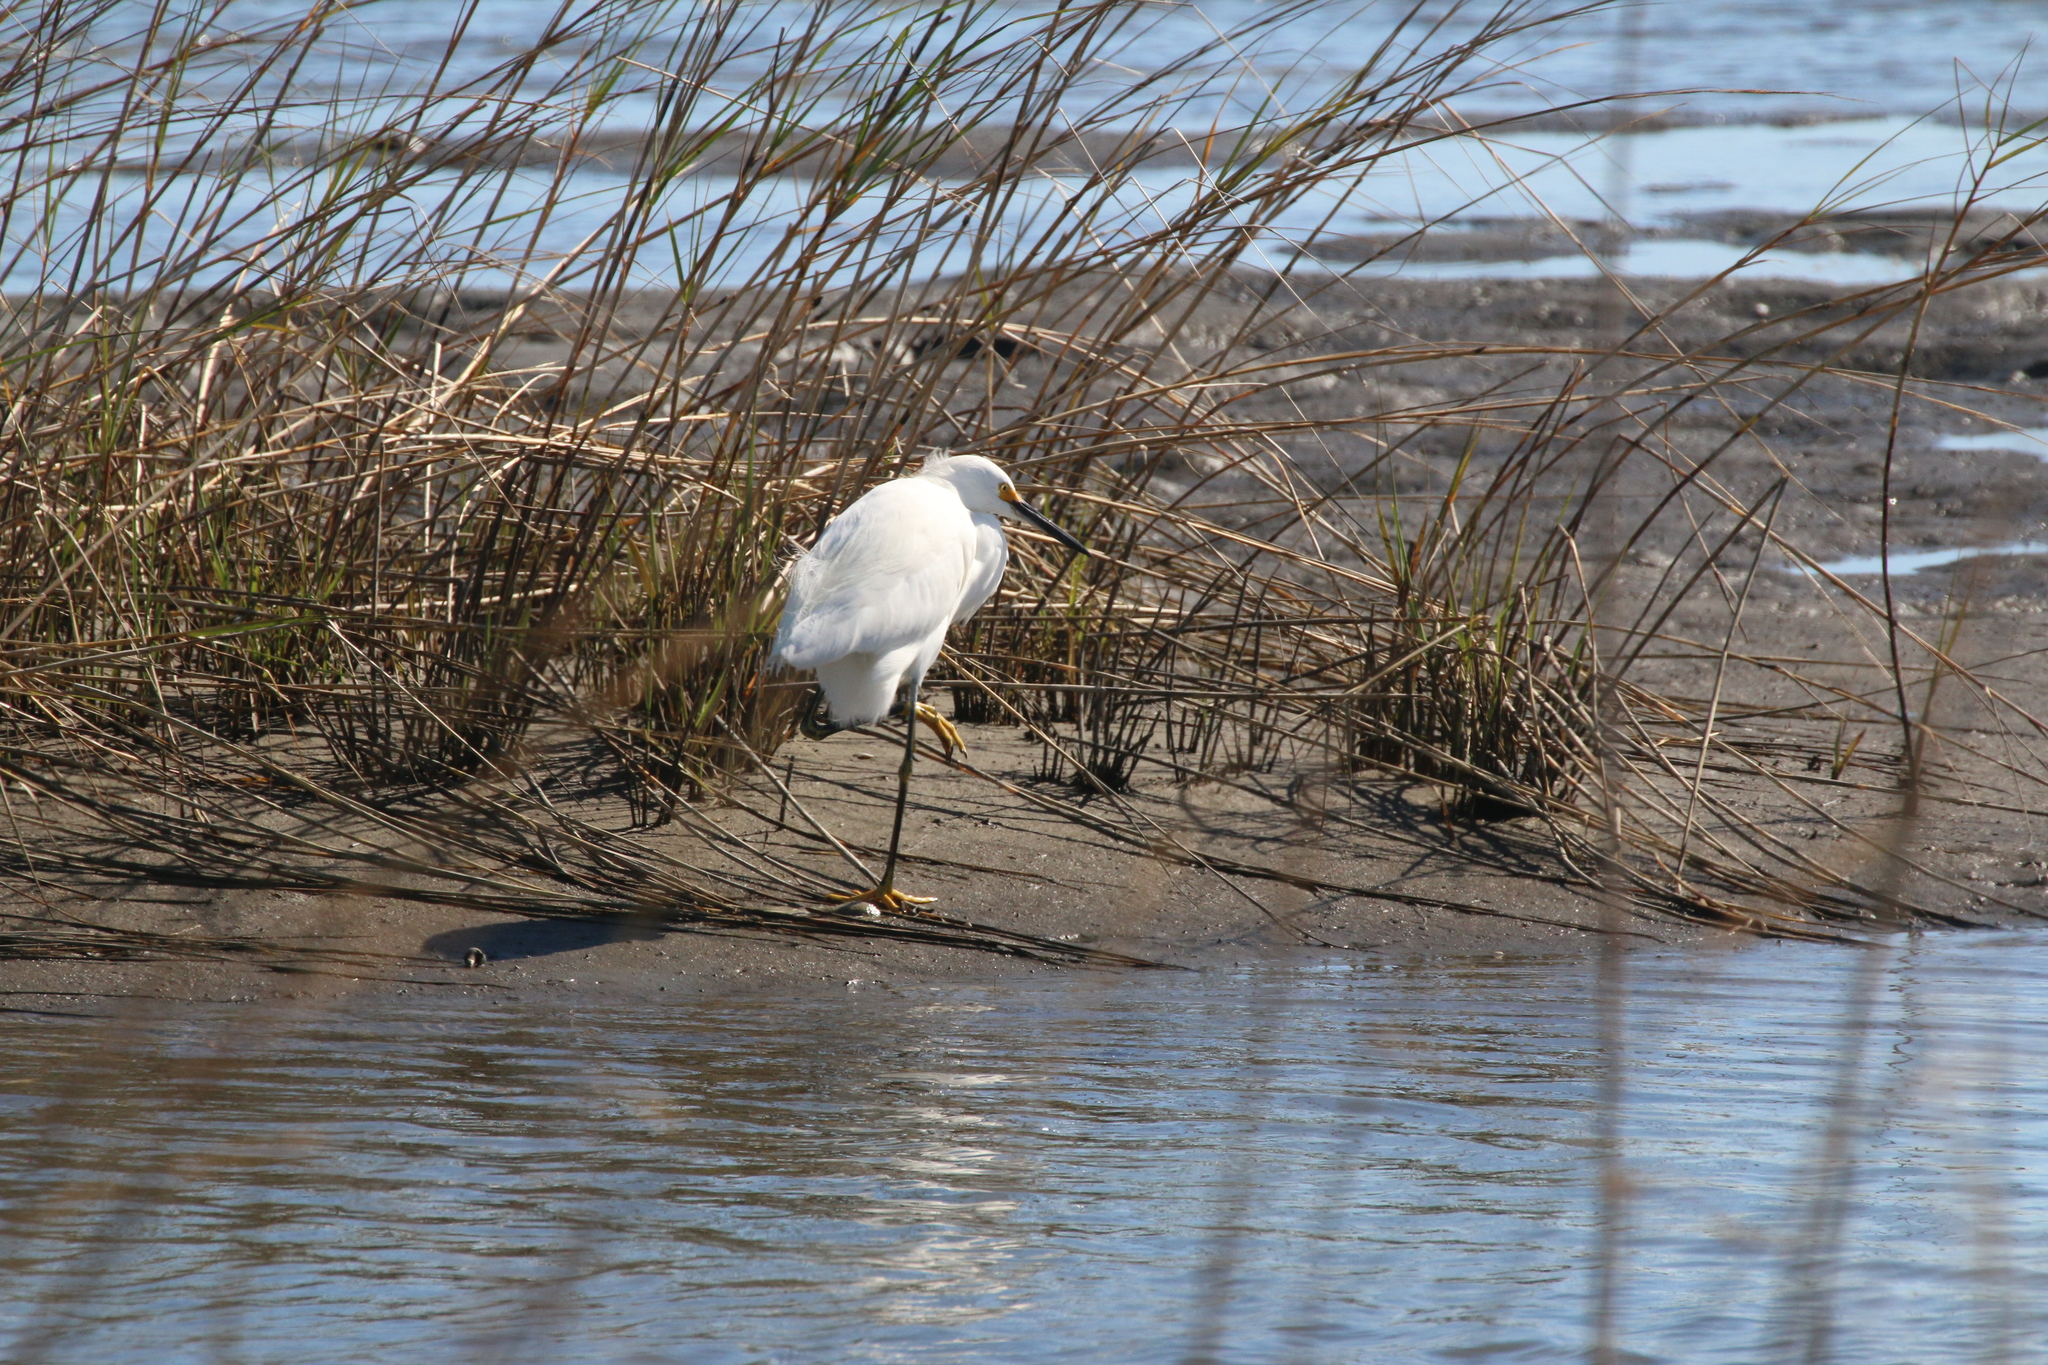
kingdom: Animalia
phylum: Chordata
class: Aves
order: Pelecaniformes
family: Ardeidae
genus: Egretta
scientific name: Egretta thula
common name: Snowy egret
